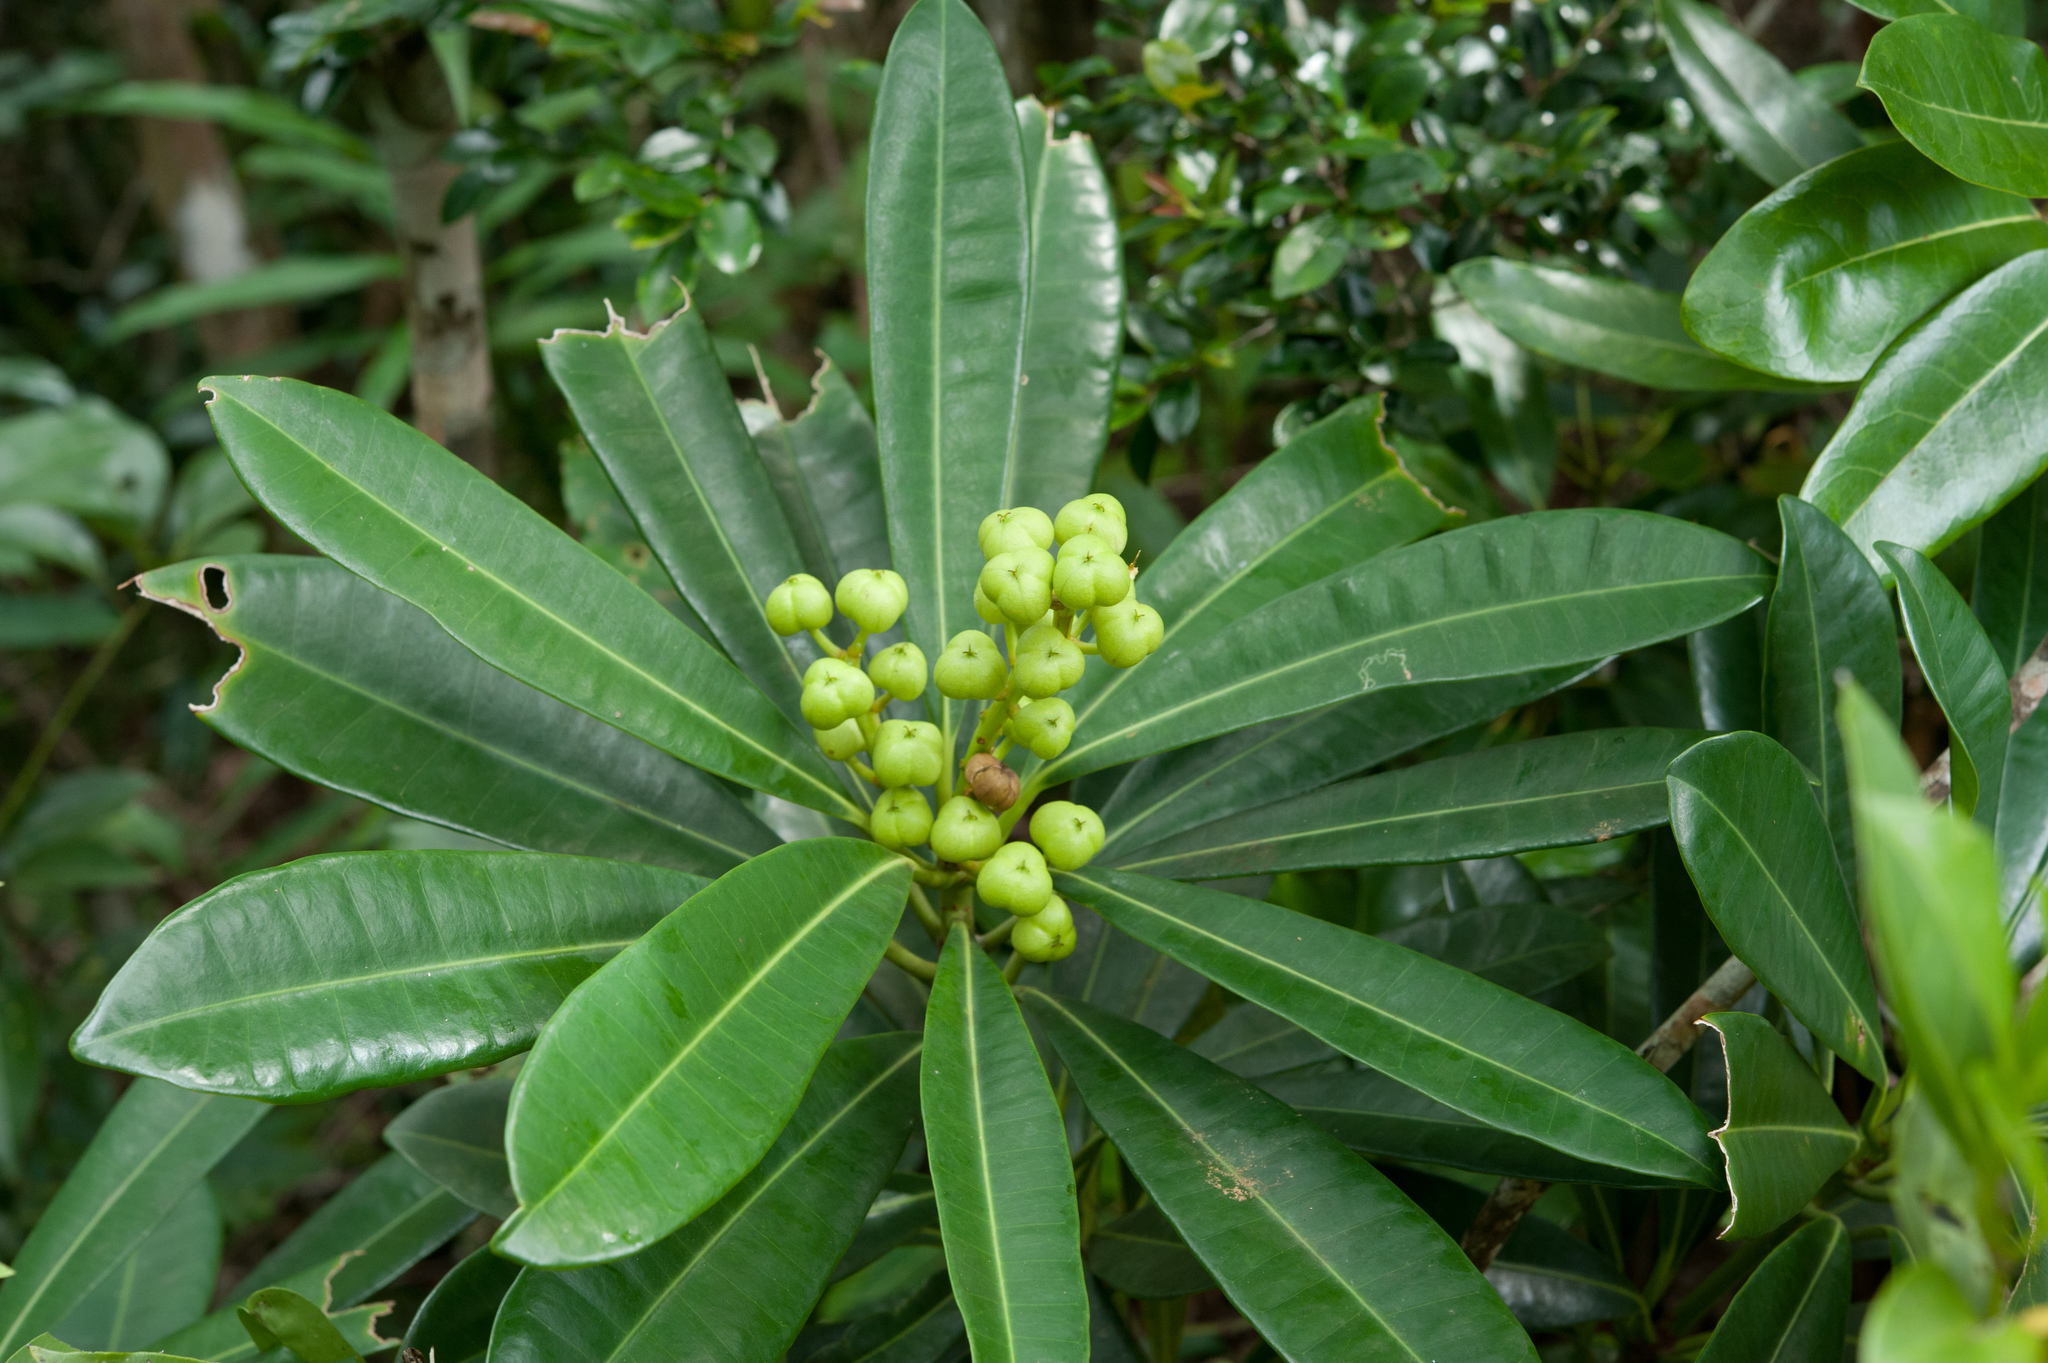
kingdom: Plantae
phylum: Tracheophyta
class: Magnoliopsida
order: Malpighiales
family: Euphorbiaceae
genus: Excoecaria
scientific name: Excoecaria kawakamii
